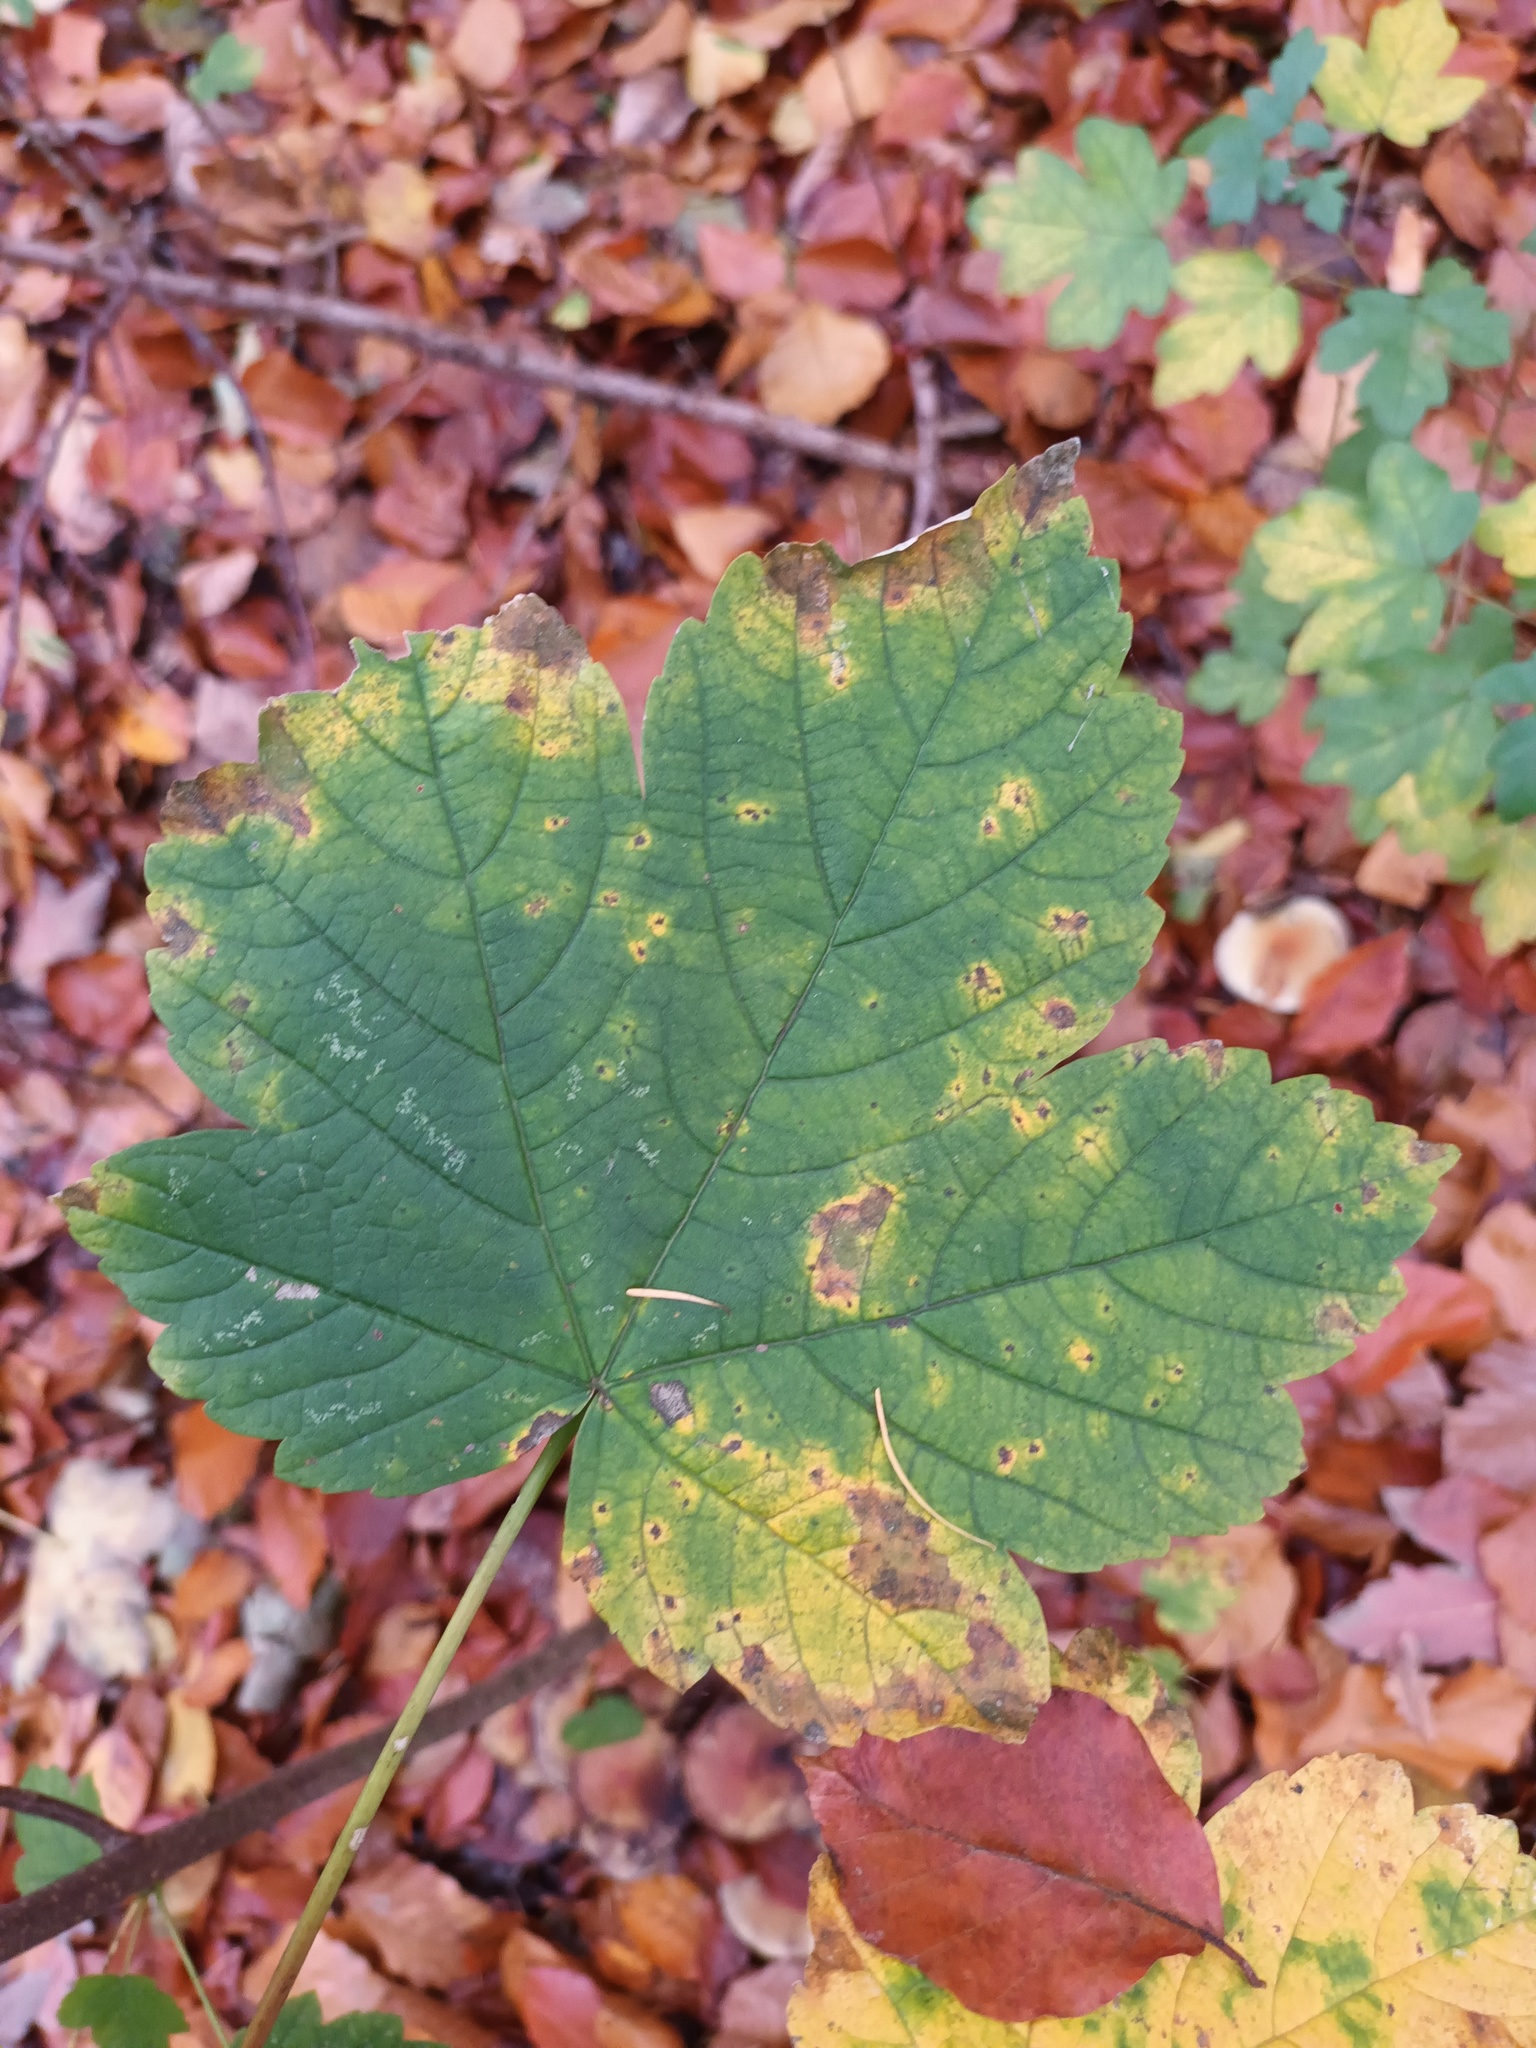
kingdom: Plantae
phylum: Tracheophyta
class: Magnoliopsida
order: Sapindales
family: Sapindaceae
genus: Acer
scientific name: Acer pseudoplatanus
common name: Sycamore
